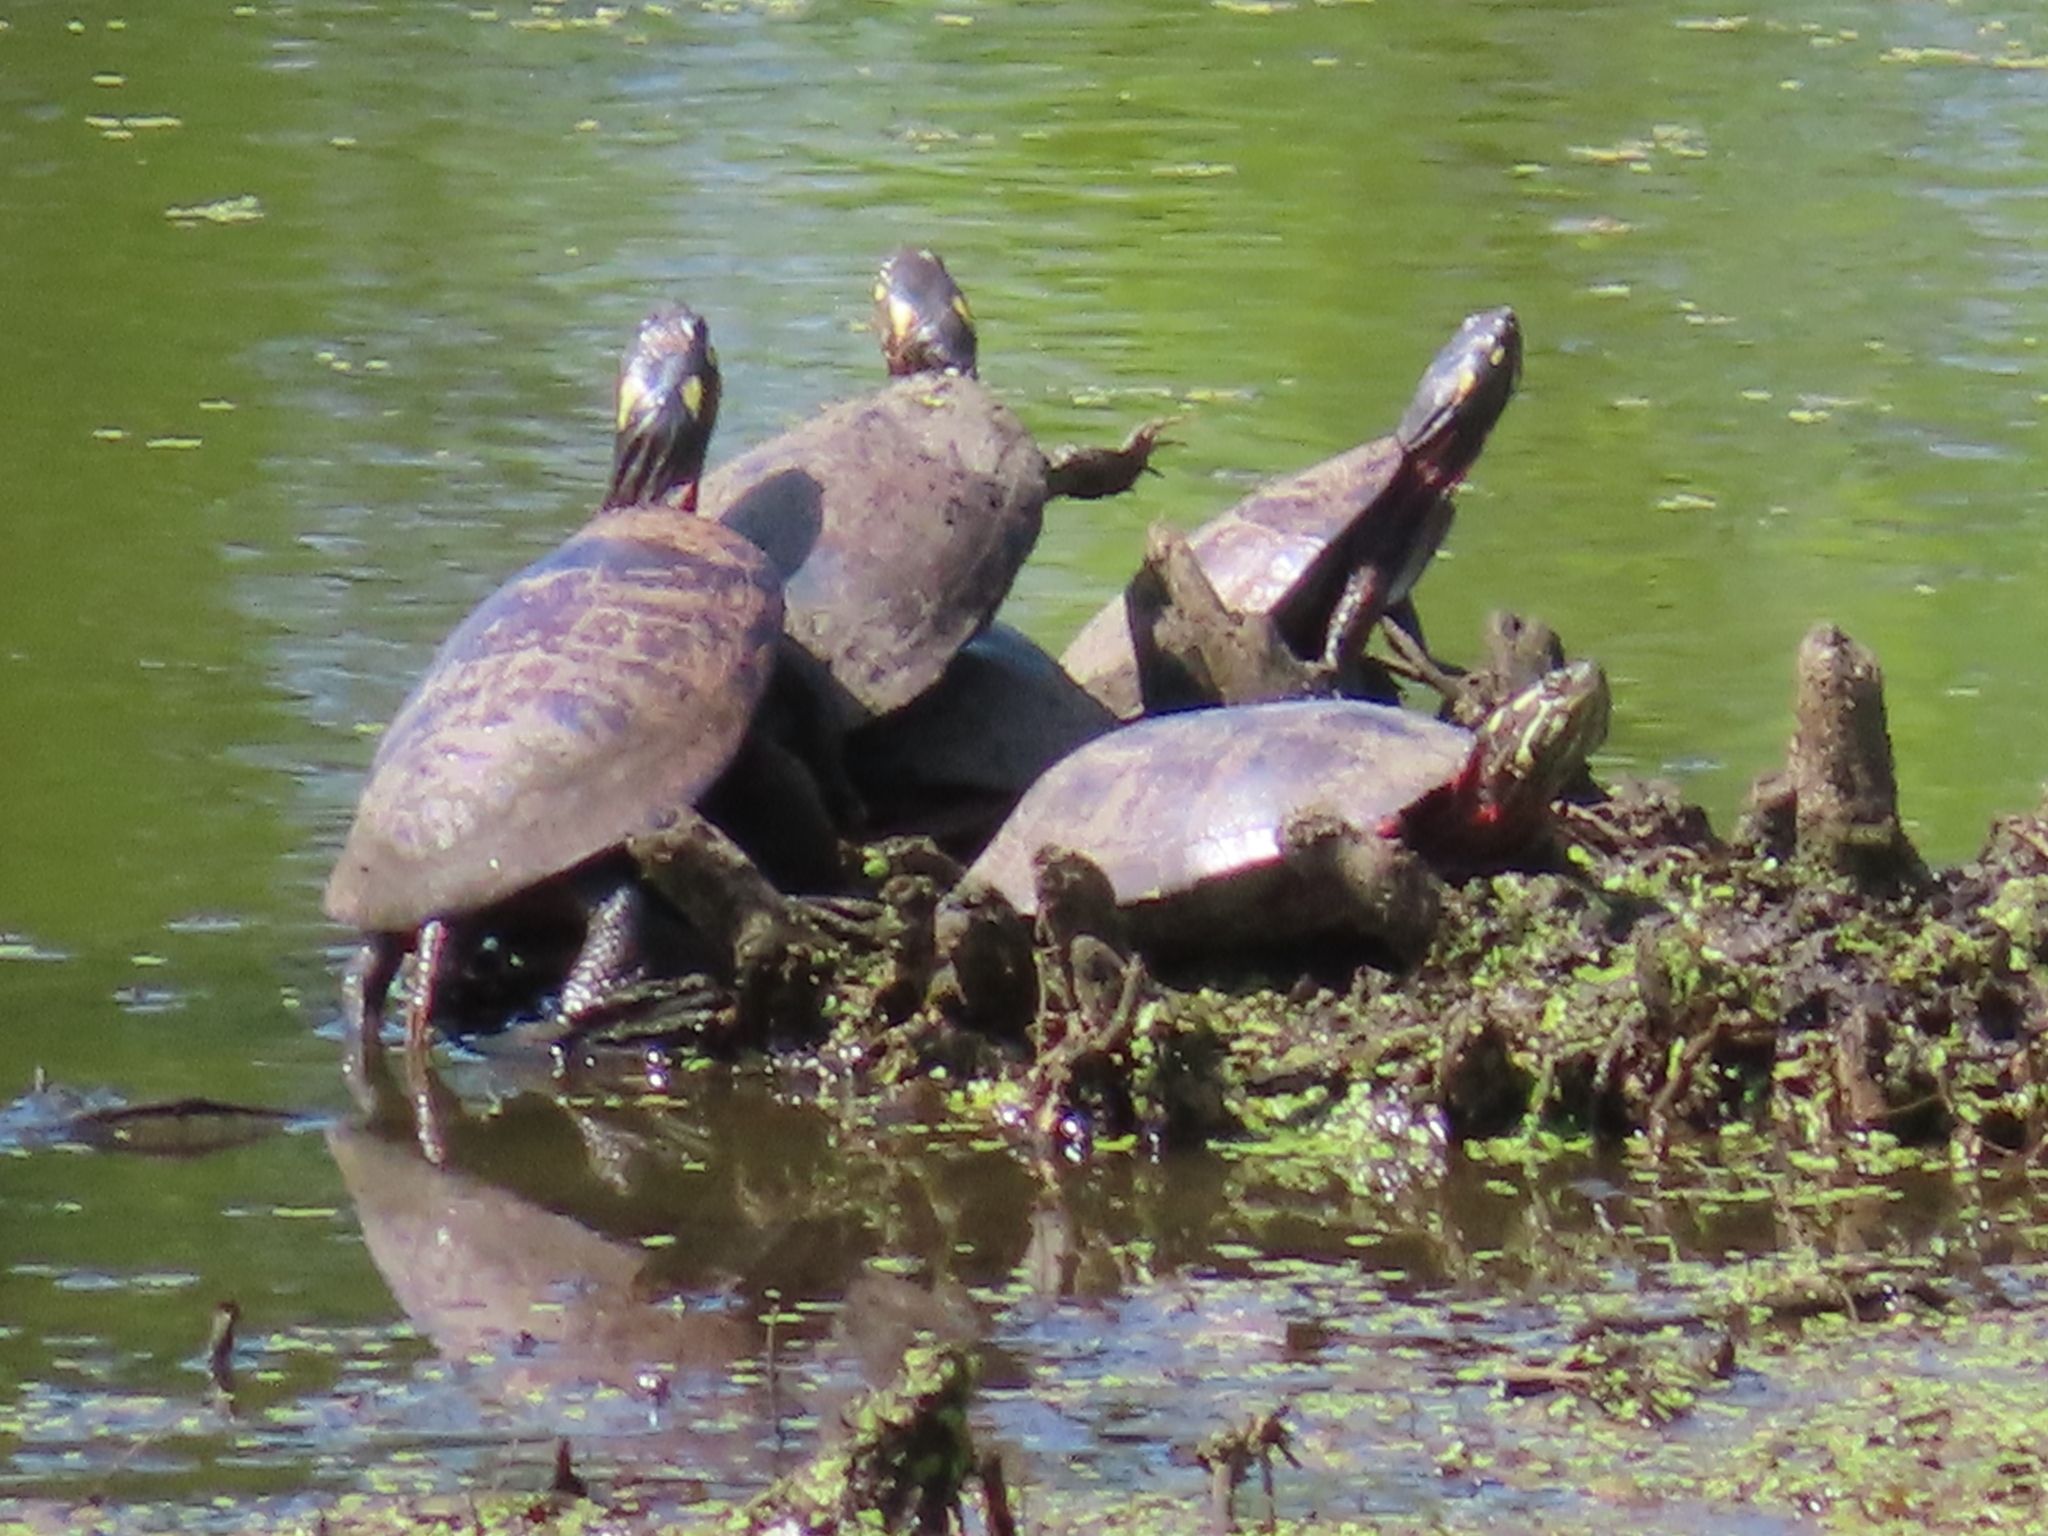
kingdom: Animalia
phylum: Chordata
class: Testudines
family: Emydidae
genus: Chrysemys
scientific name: Chrysemys picta
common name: Painted turtle
